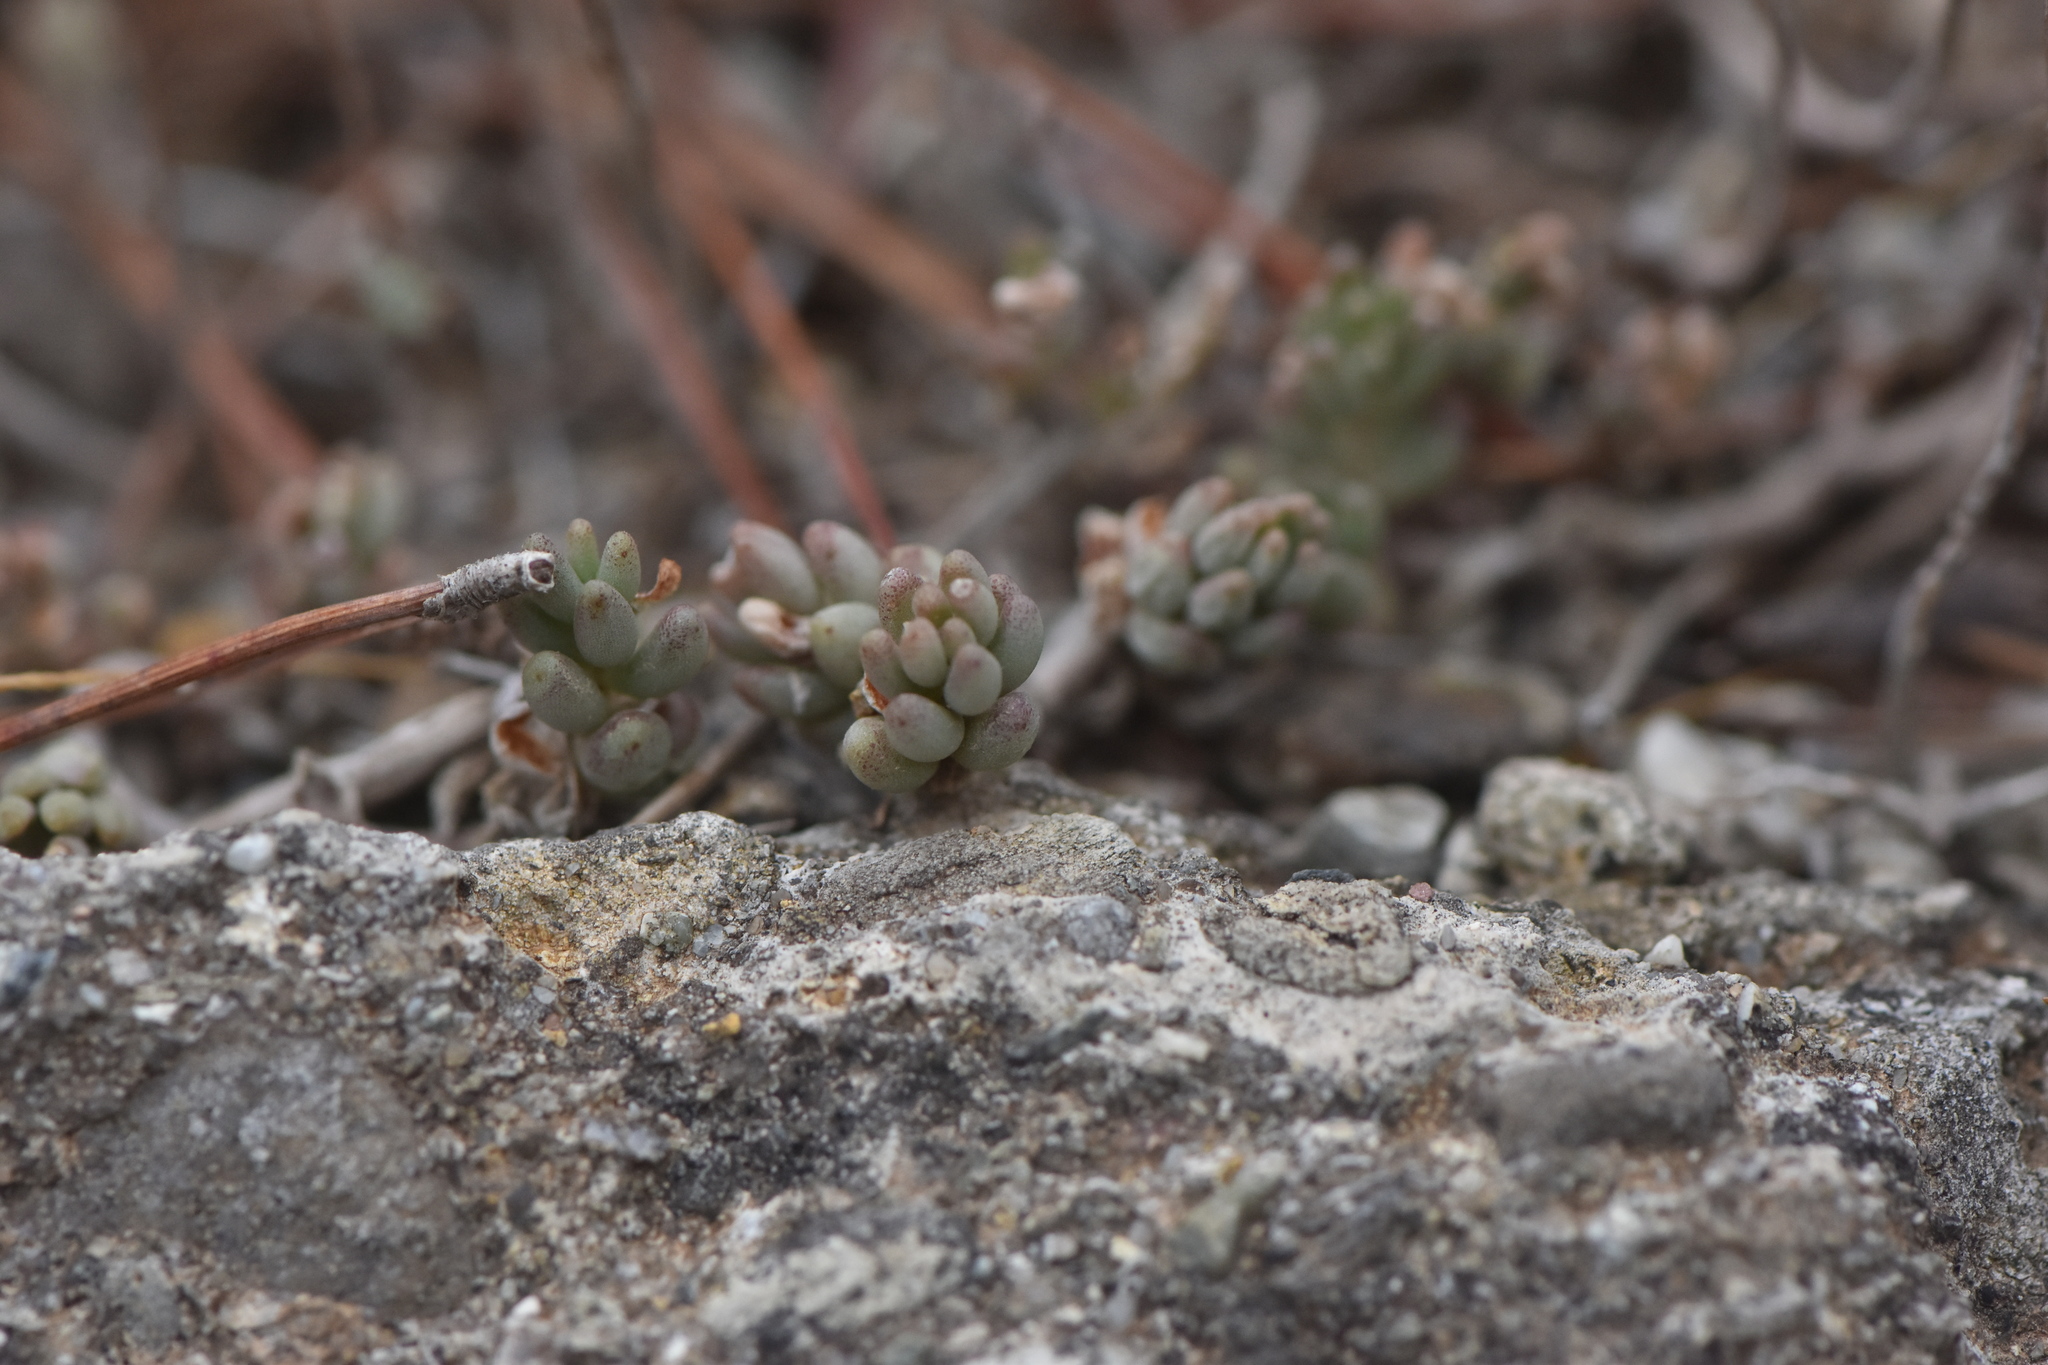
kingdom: Plantae
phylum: Tracheophyta
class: Magnoliopsida
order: Saxifragales
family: Crassulaceae
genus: Sedum
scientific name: Sedum album
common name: White stonecrop
